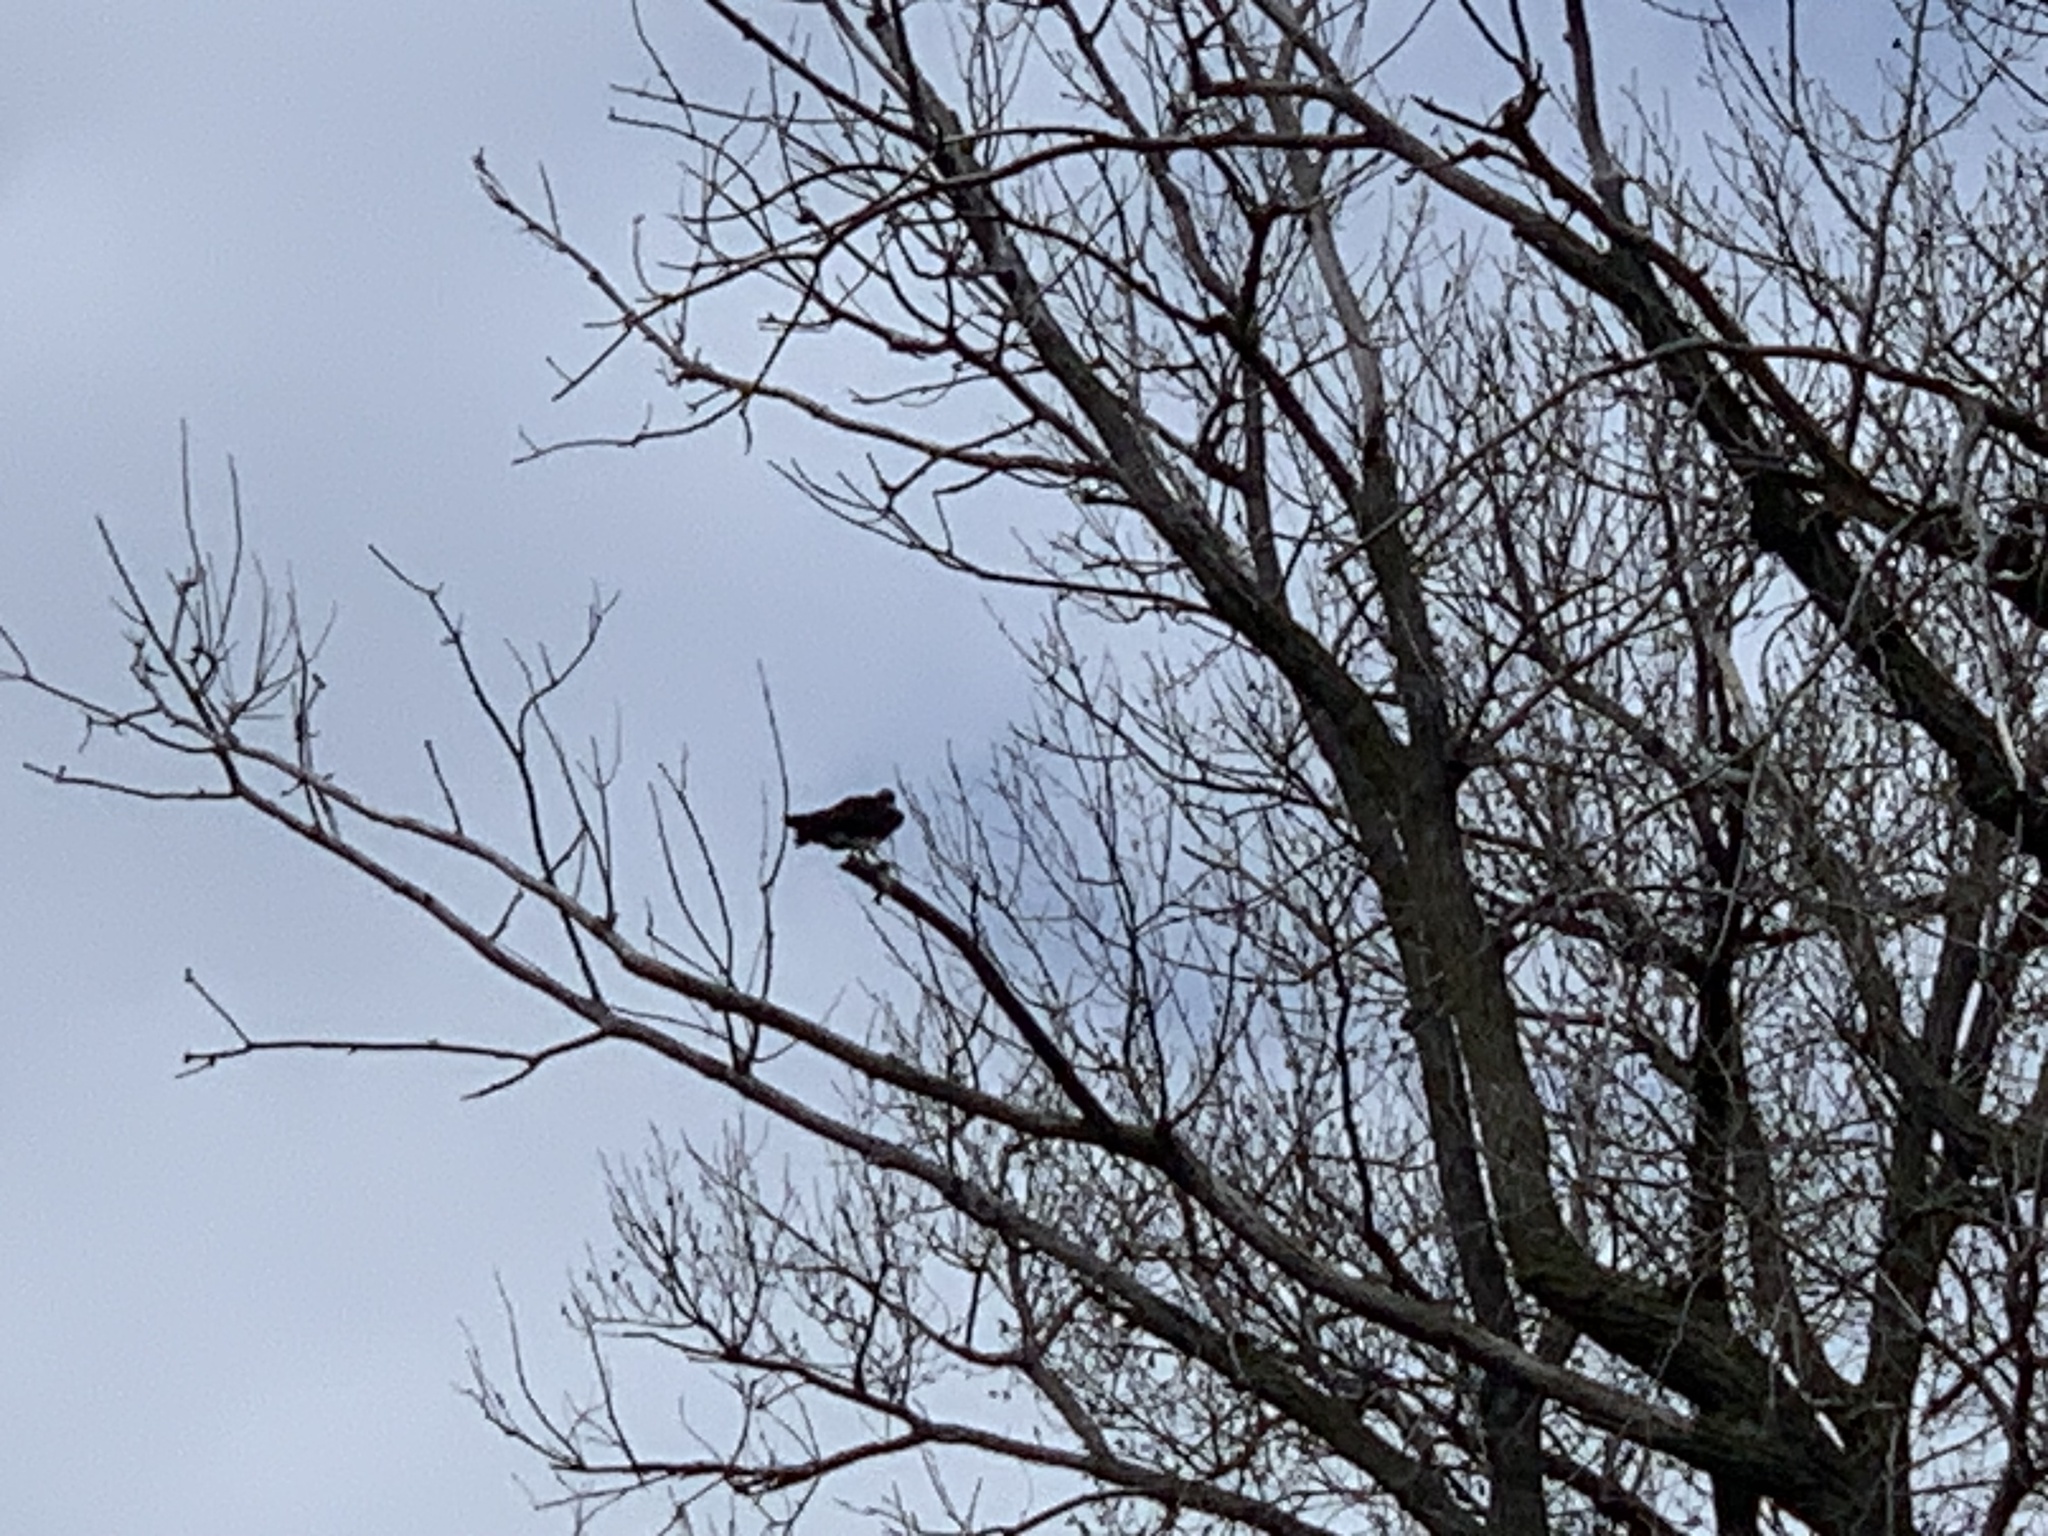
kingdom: Animalia
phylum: Chordata
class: Aves
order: Accipitriformes
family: Pandionidae
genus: Pandion
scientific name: Pandion haliaetus
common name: Osprey
